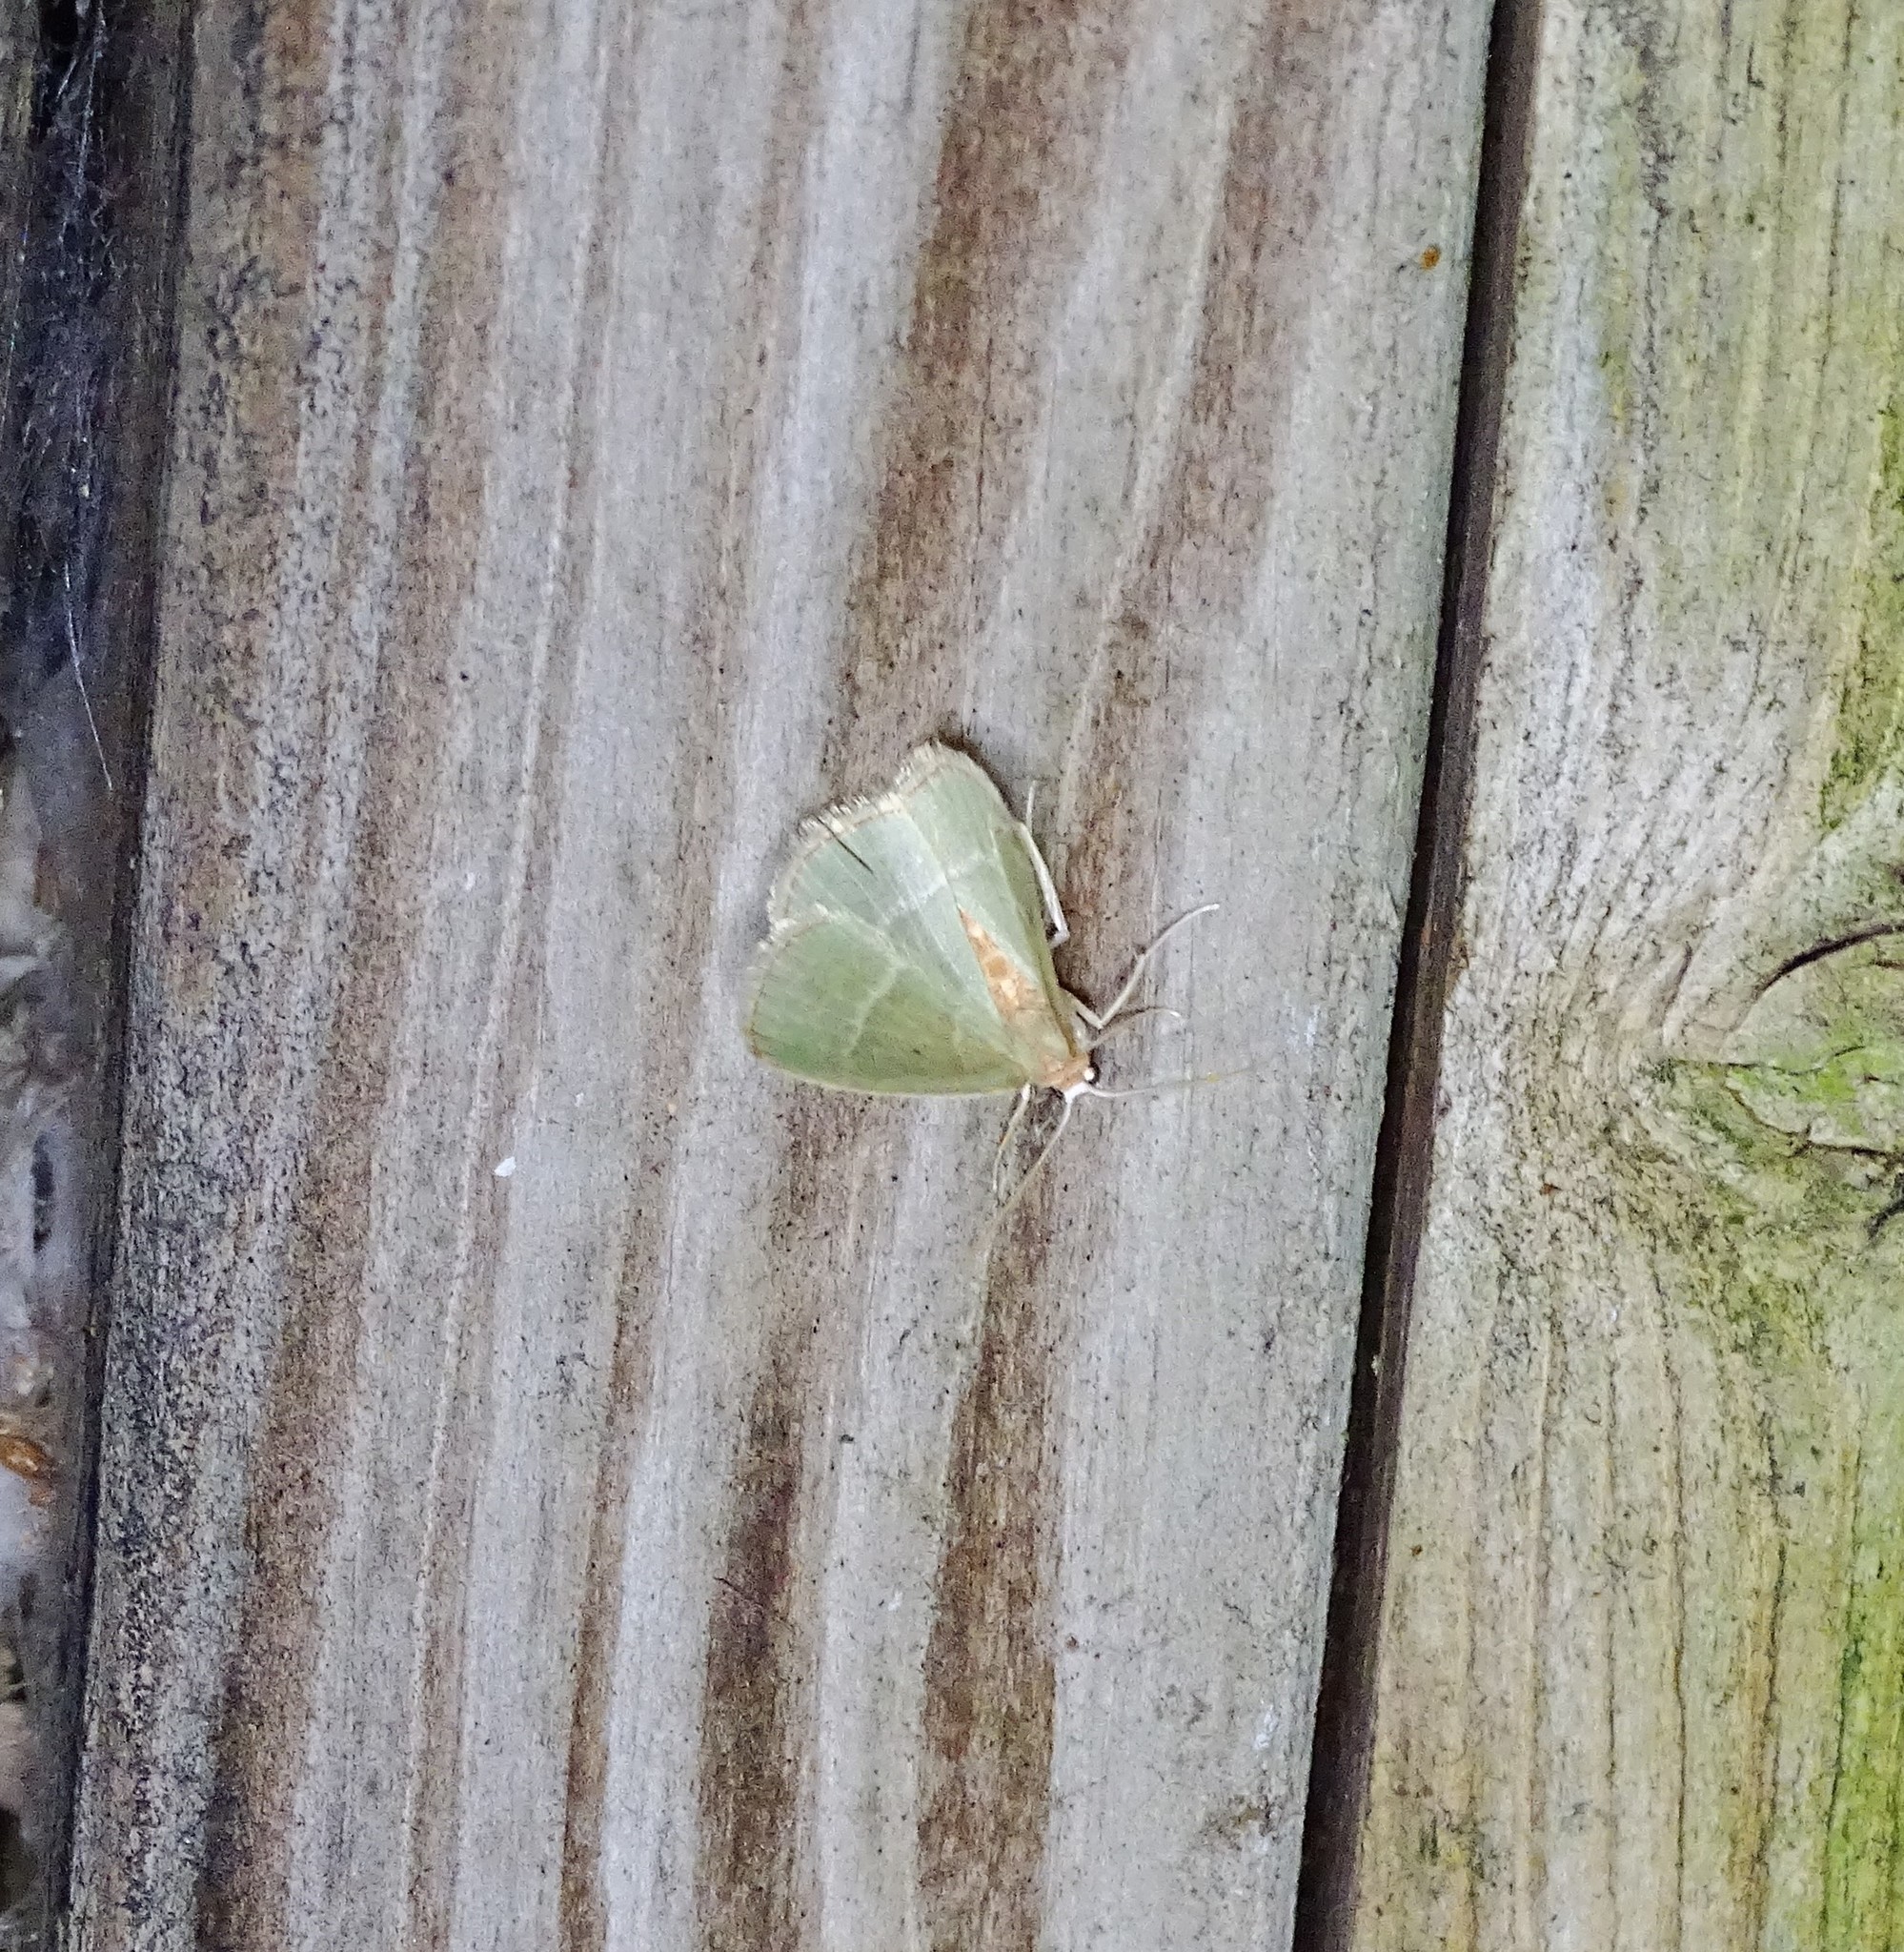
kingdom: Animalia
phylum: Arthropoda
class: Insecta
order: Lepidoptera
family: Geometridae
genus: Nemoria
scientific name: Nemoria bistriaria
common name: Red-fringed emerald
